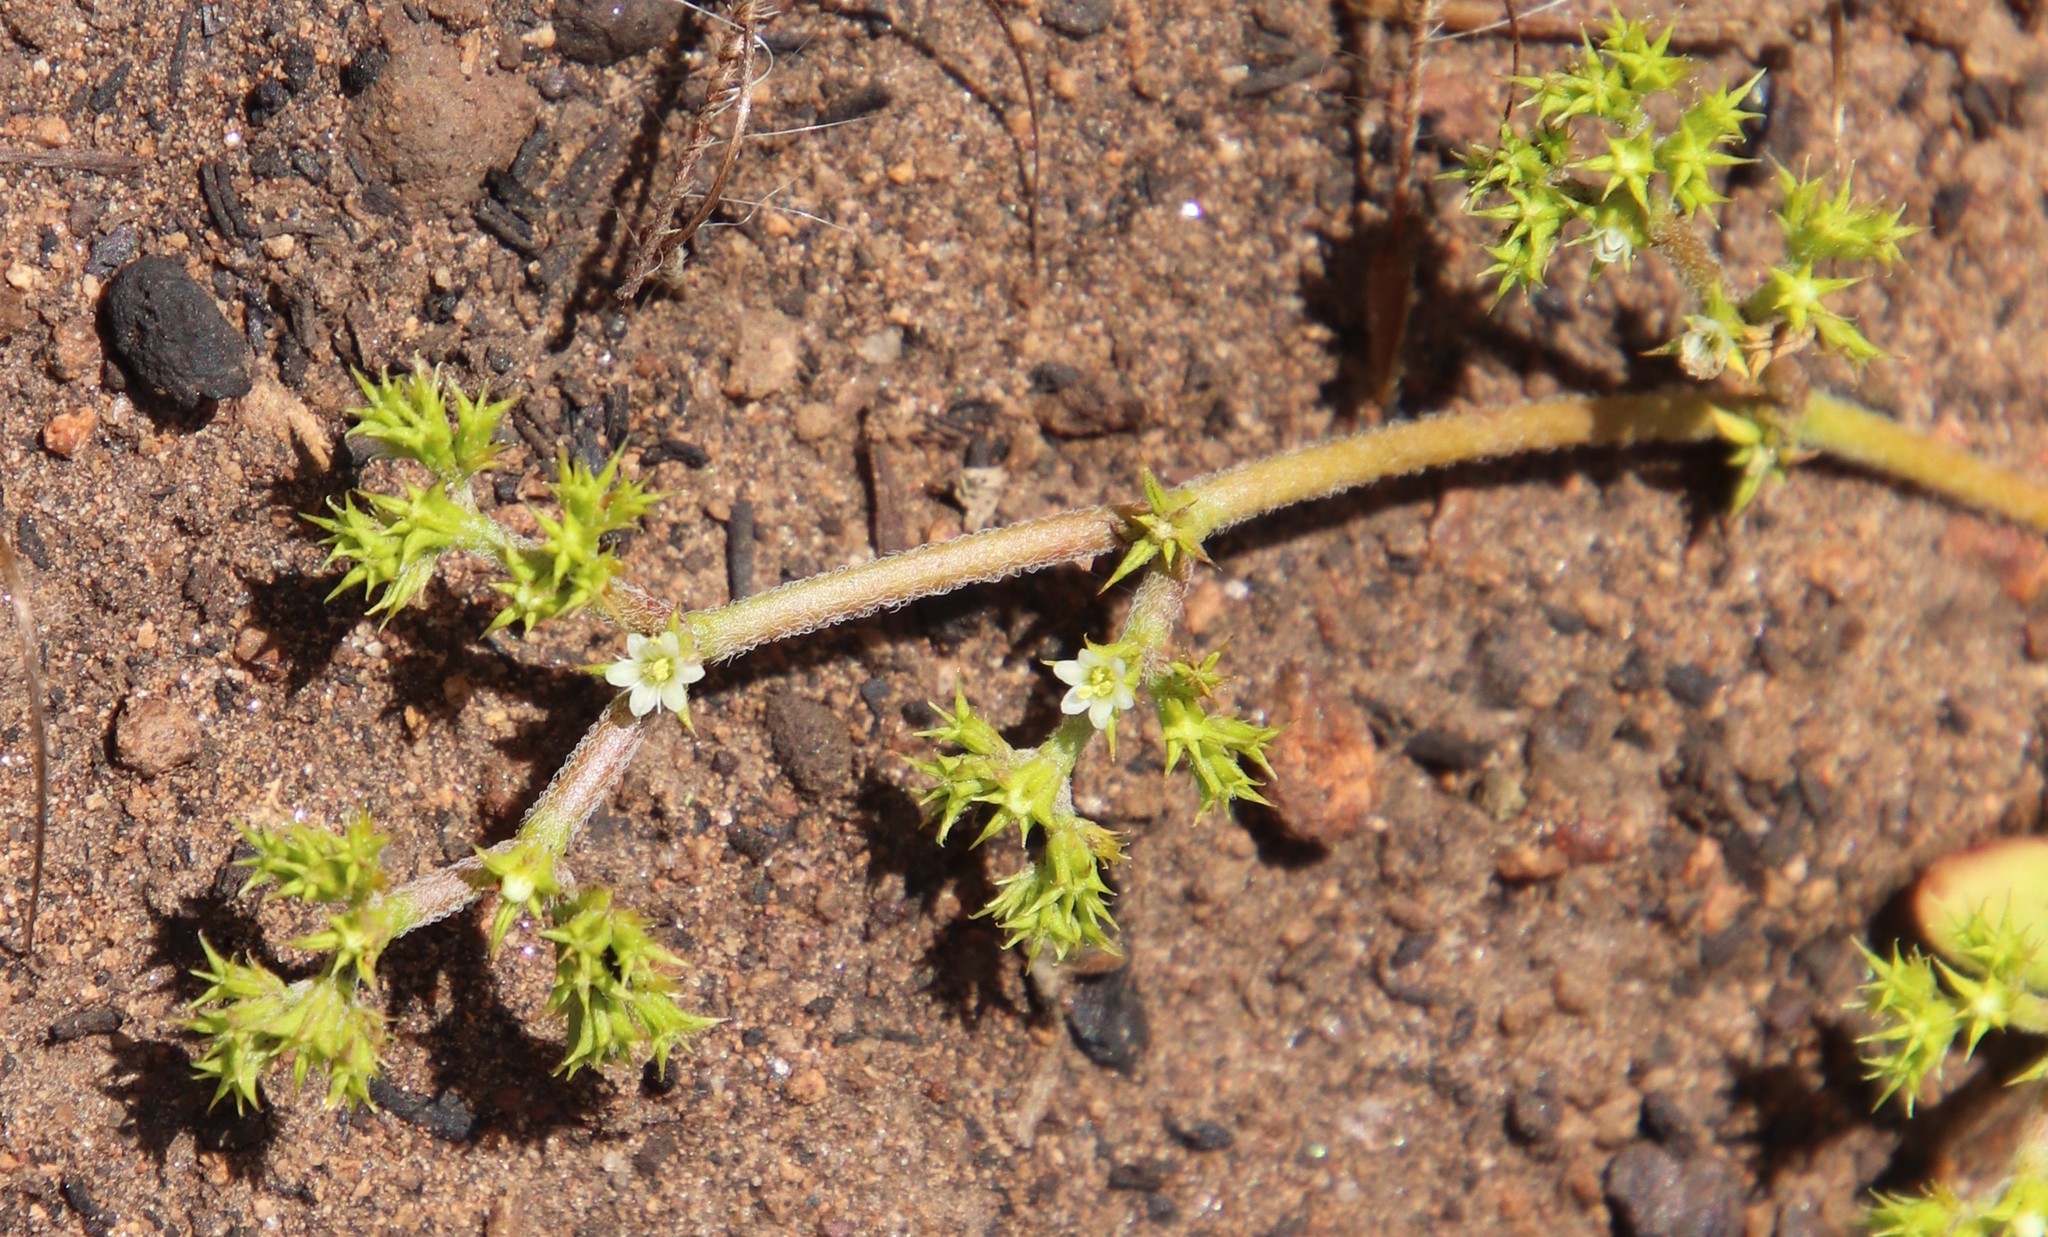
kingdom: Plantae
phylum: Tracheophyta
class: Magnoliopsida
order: Caryophyllales
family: Polygonaceae
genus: Chorizanthe
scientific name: Chorizanthe procumbens
